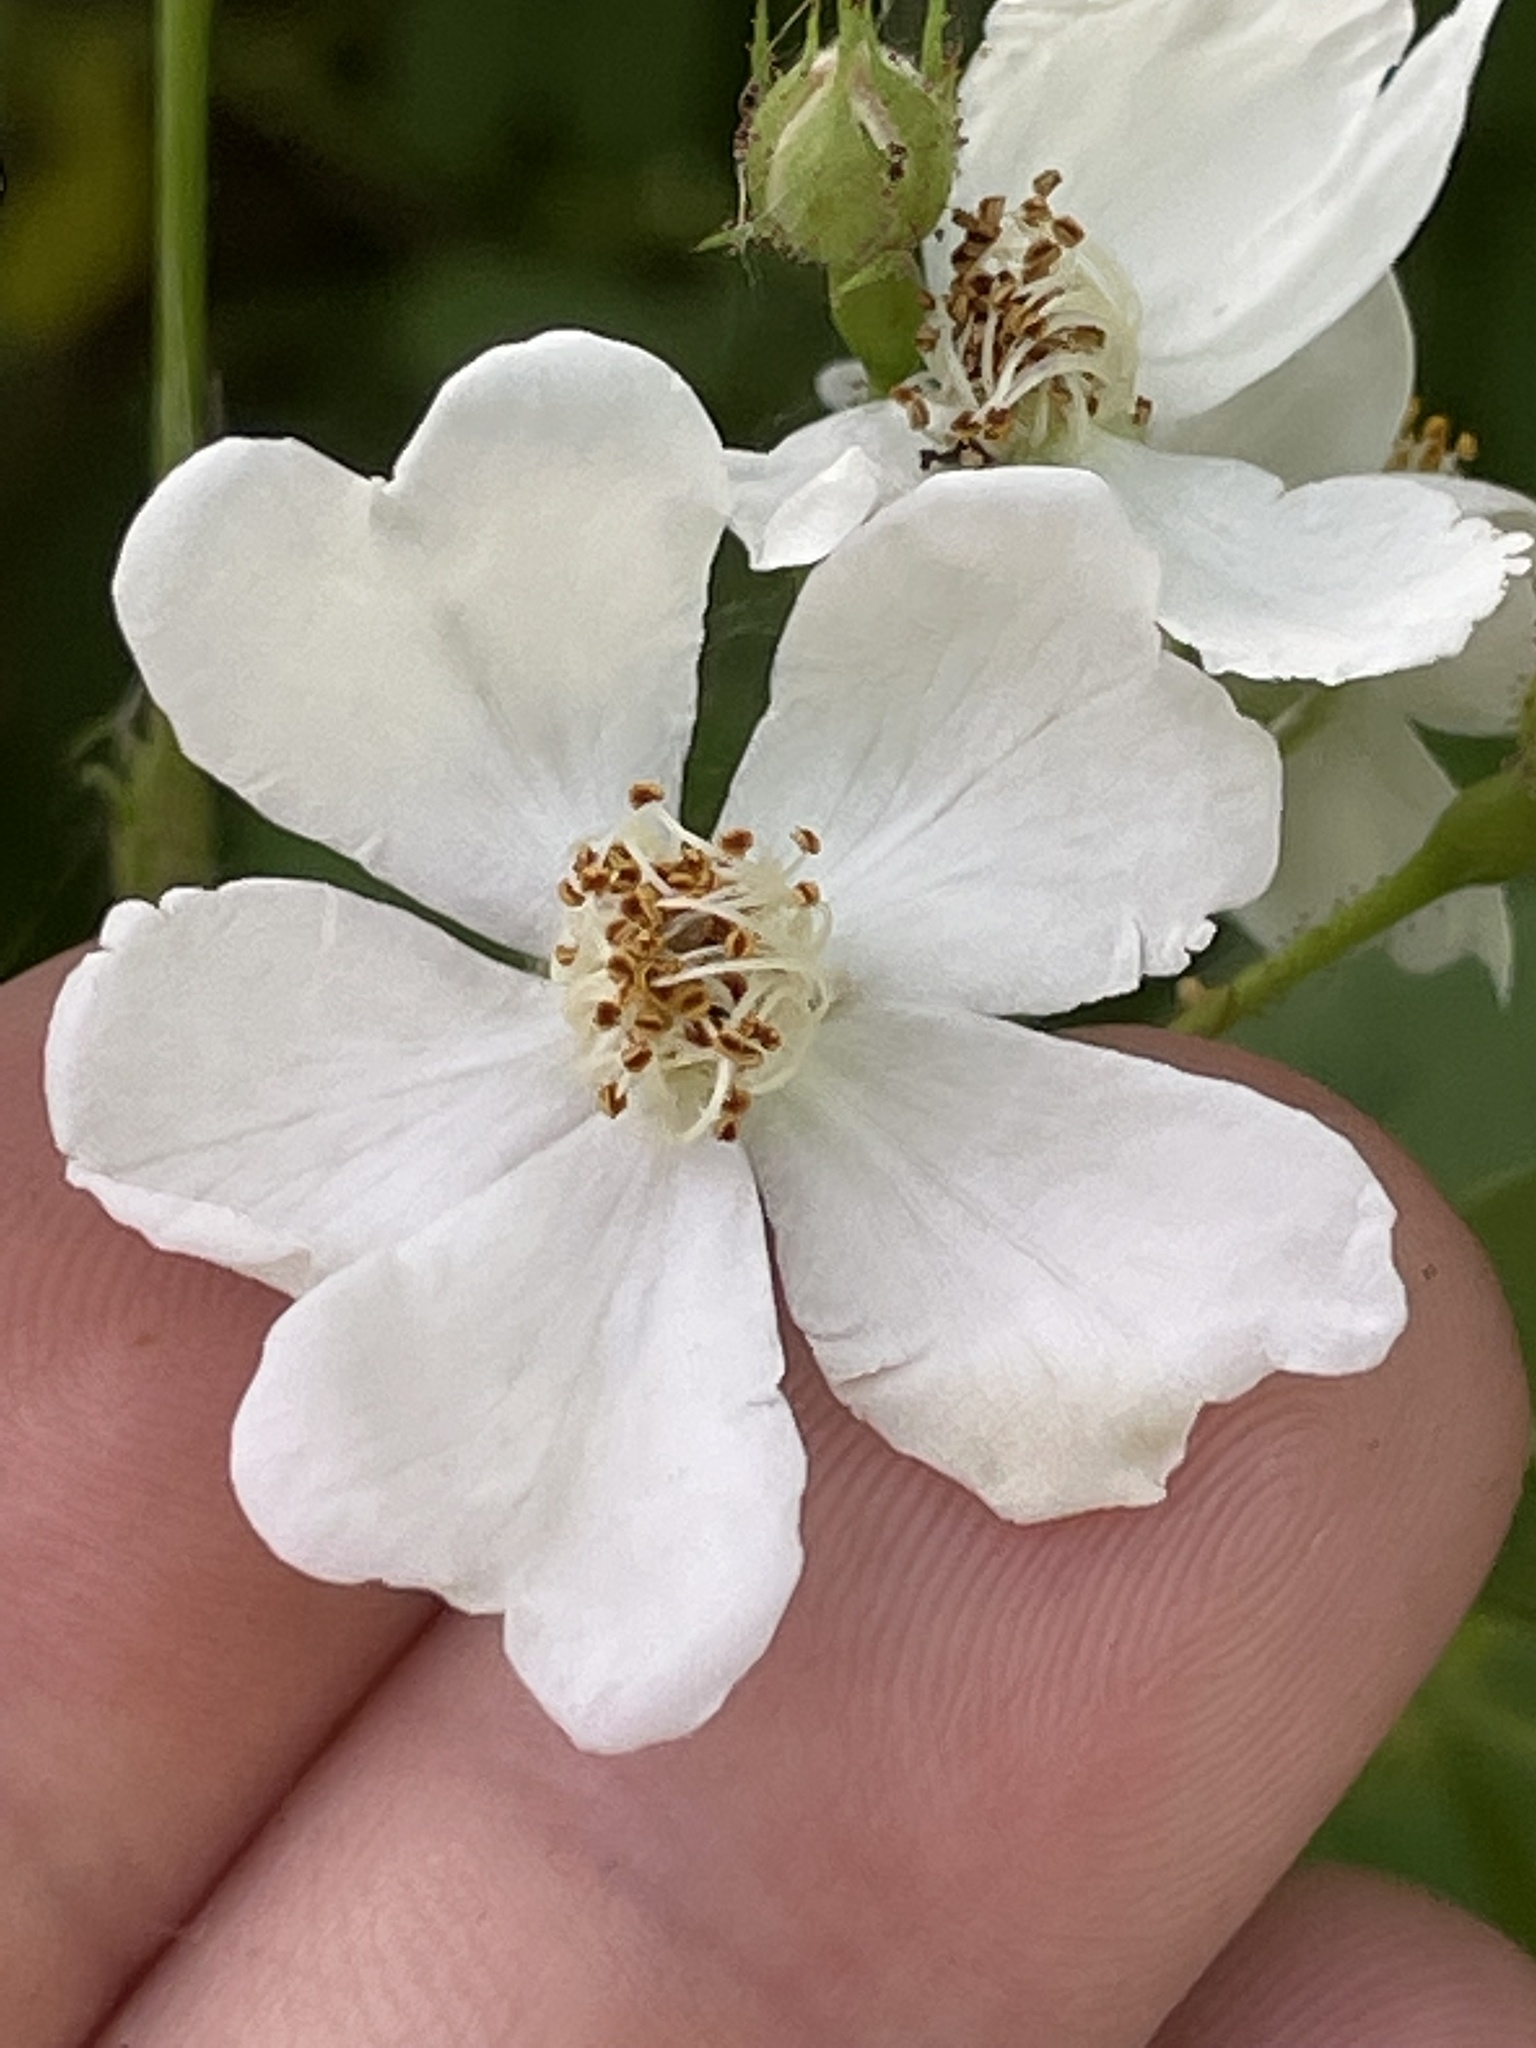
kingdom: Plantae
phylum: Tracheophyta
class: Magnoliopsida
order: Rosales
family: Rosaceae
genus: Rosa
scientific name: Rosa multiflora
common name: Multiflora rose
